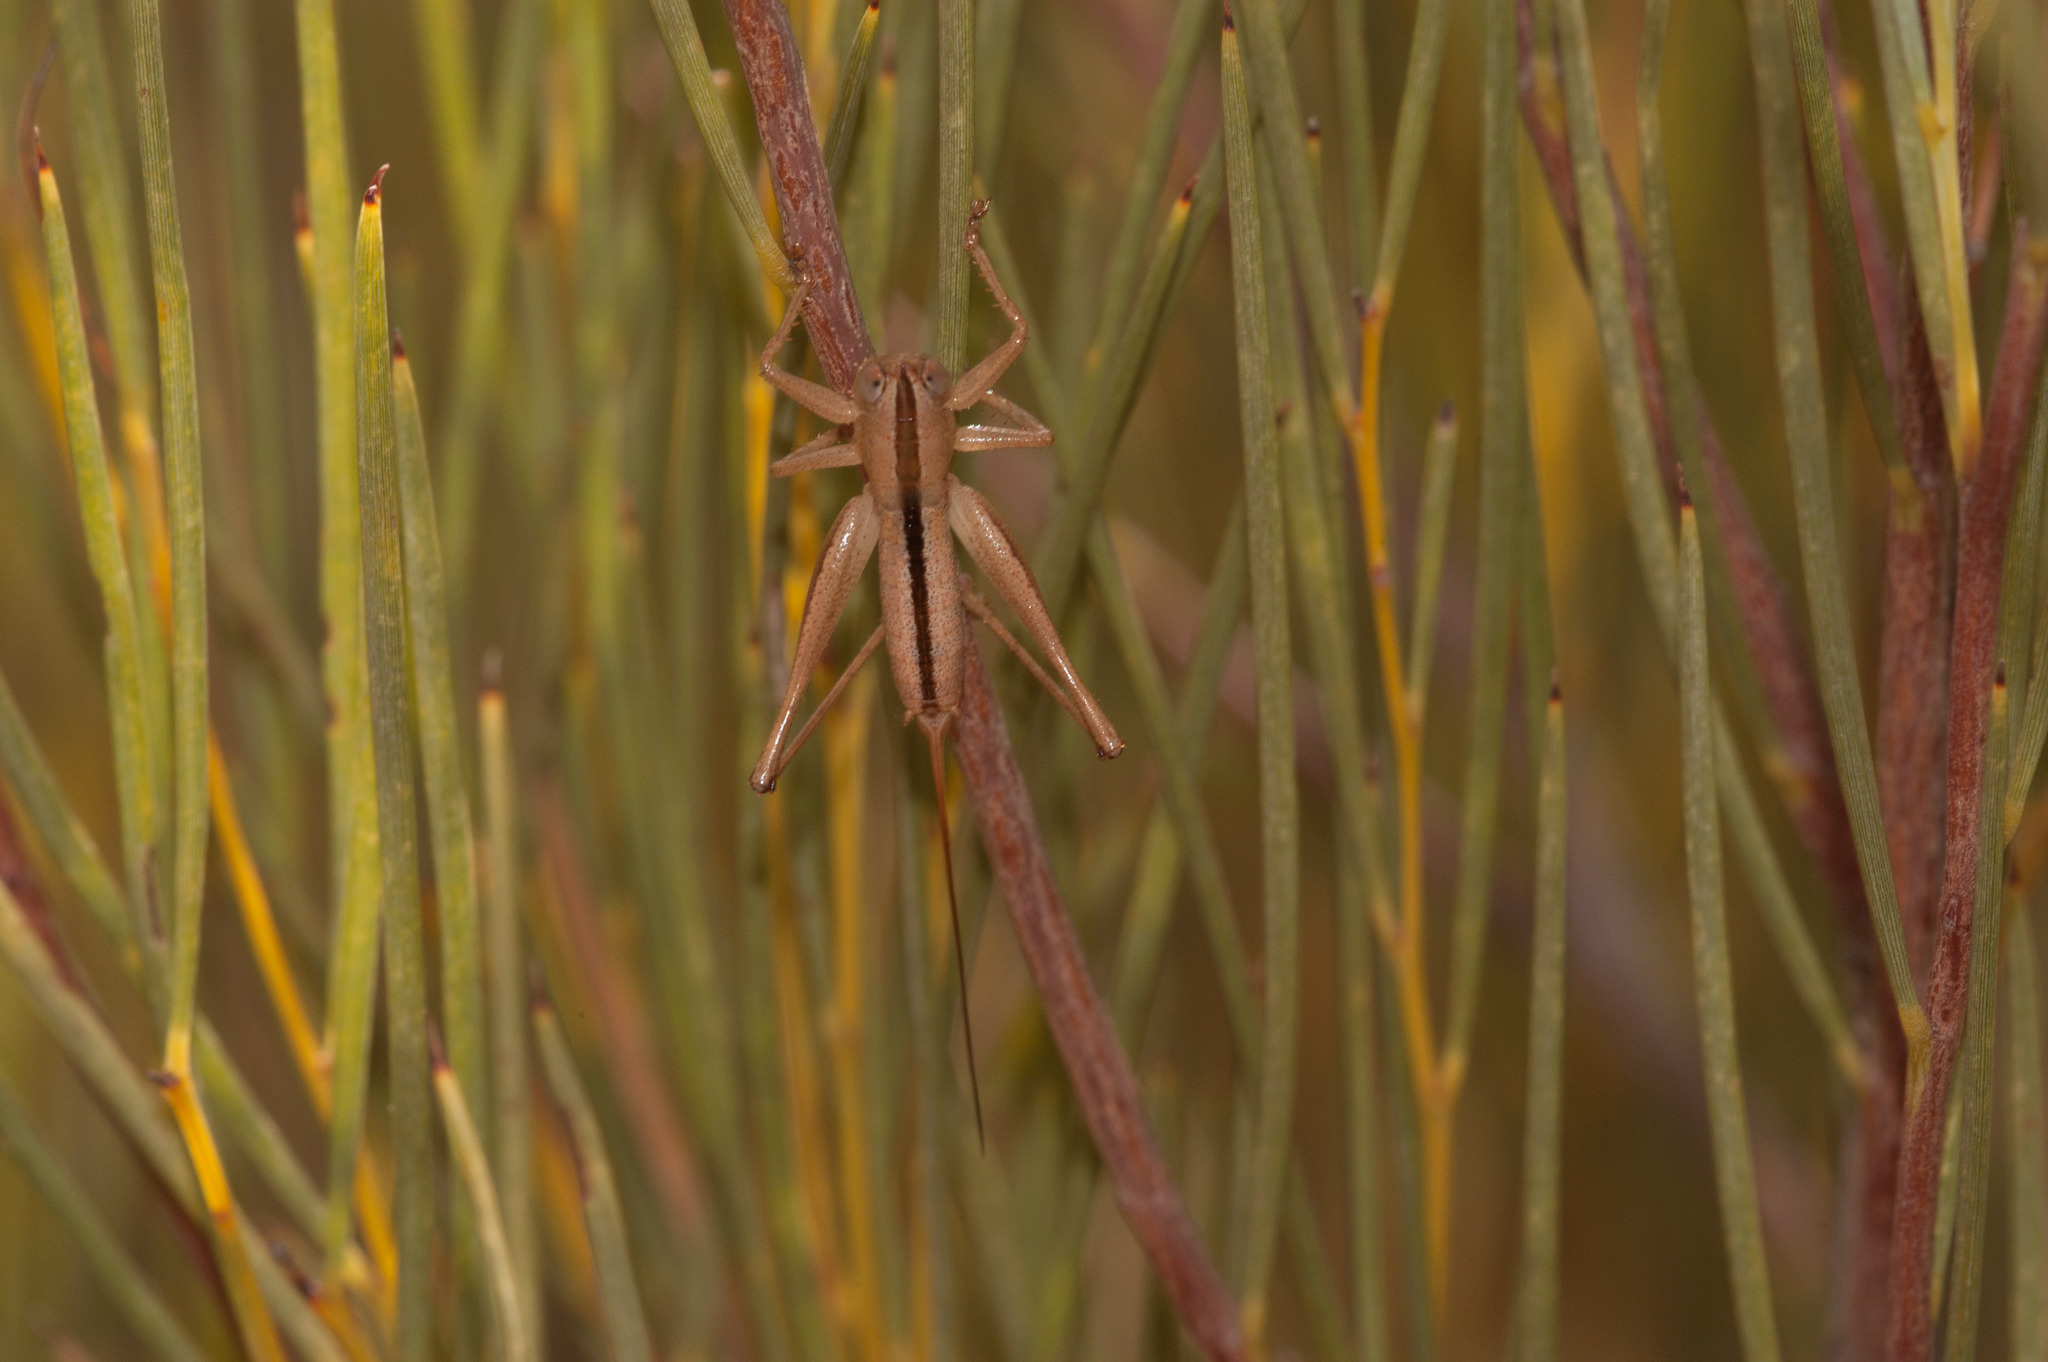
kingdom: Animalia
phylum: Arthropoda
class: Insecta
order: Orthoptera
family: Tettigoniidae
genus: Australiagraecia
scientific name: Australiagraecia spina
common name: Common heath-loving katydid
